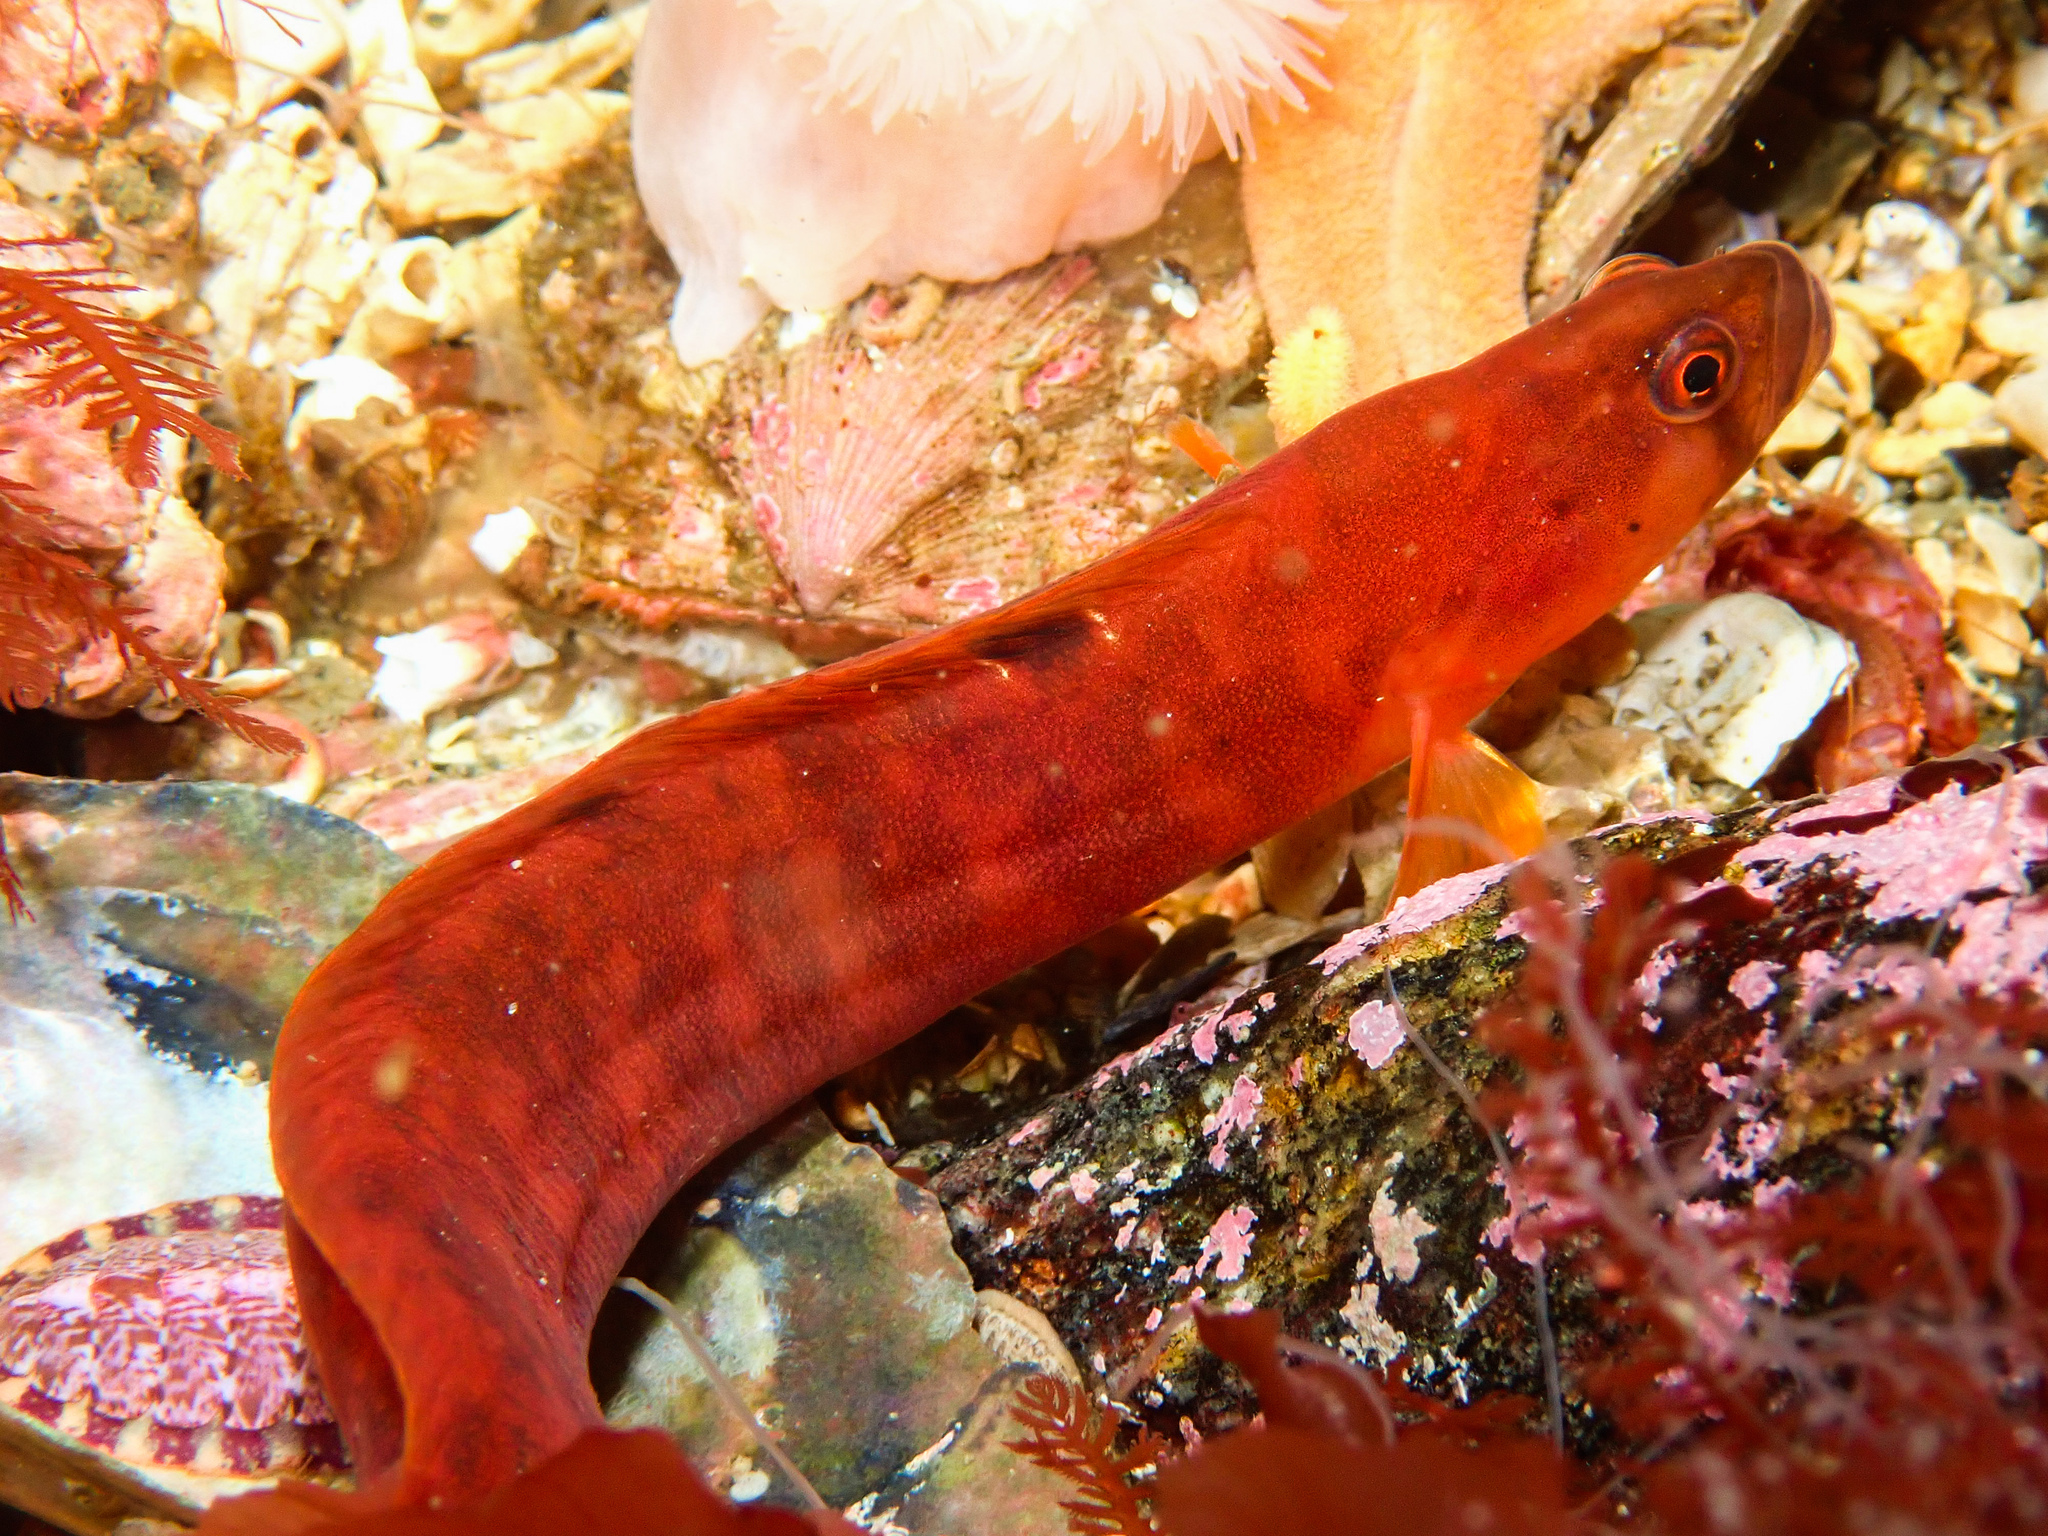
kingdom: Animalia
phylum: Chordata
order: Perciformes
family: Pholidae
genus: Pholis
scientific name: Pholis gunnellus
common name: Butterfish
